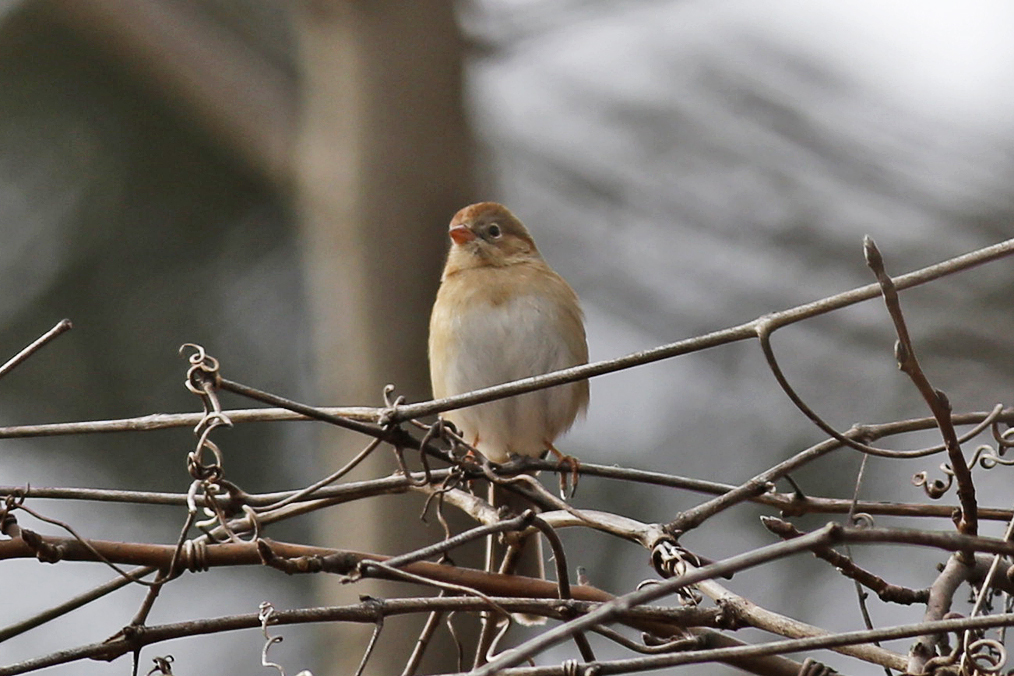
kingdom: Animalia
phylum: Chordata
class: Aves
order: Passeriformes
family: Passerellidae
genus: Spizella
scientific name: Spizella pusilla
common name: Field sparrow
